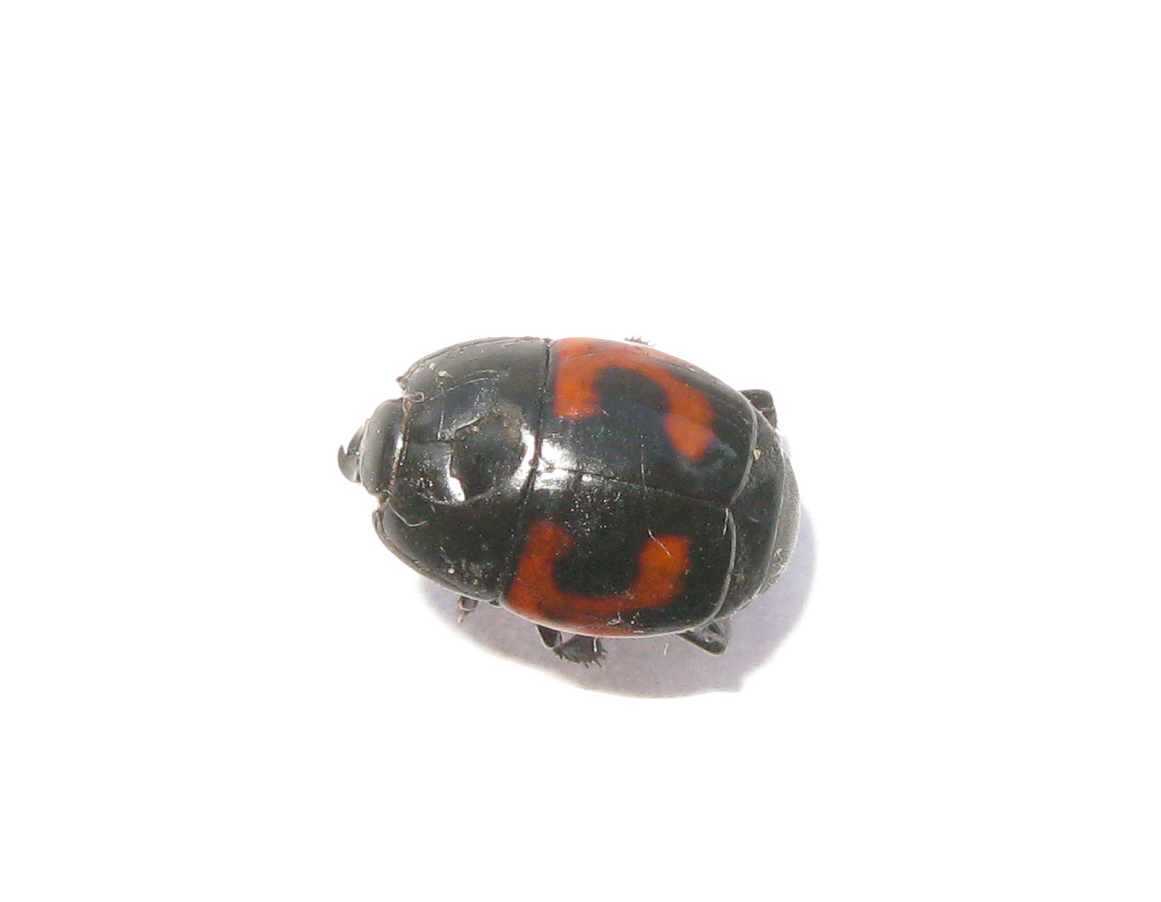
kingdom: Animalia
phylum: Arthropoda
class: Insecta
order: Coleoptera
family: Histeridae
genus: Hister
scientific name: Hister quadrimaculatus
